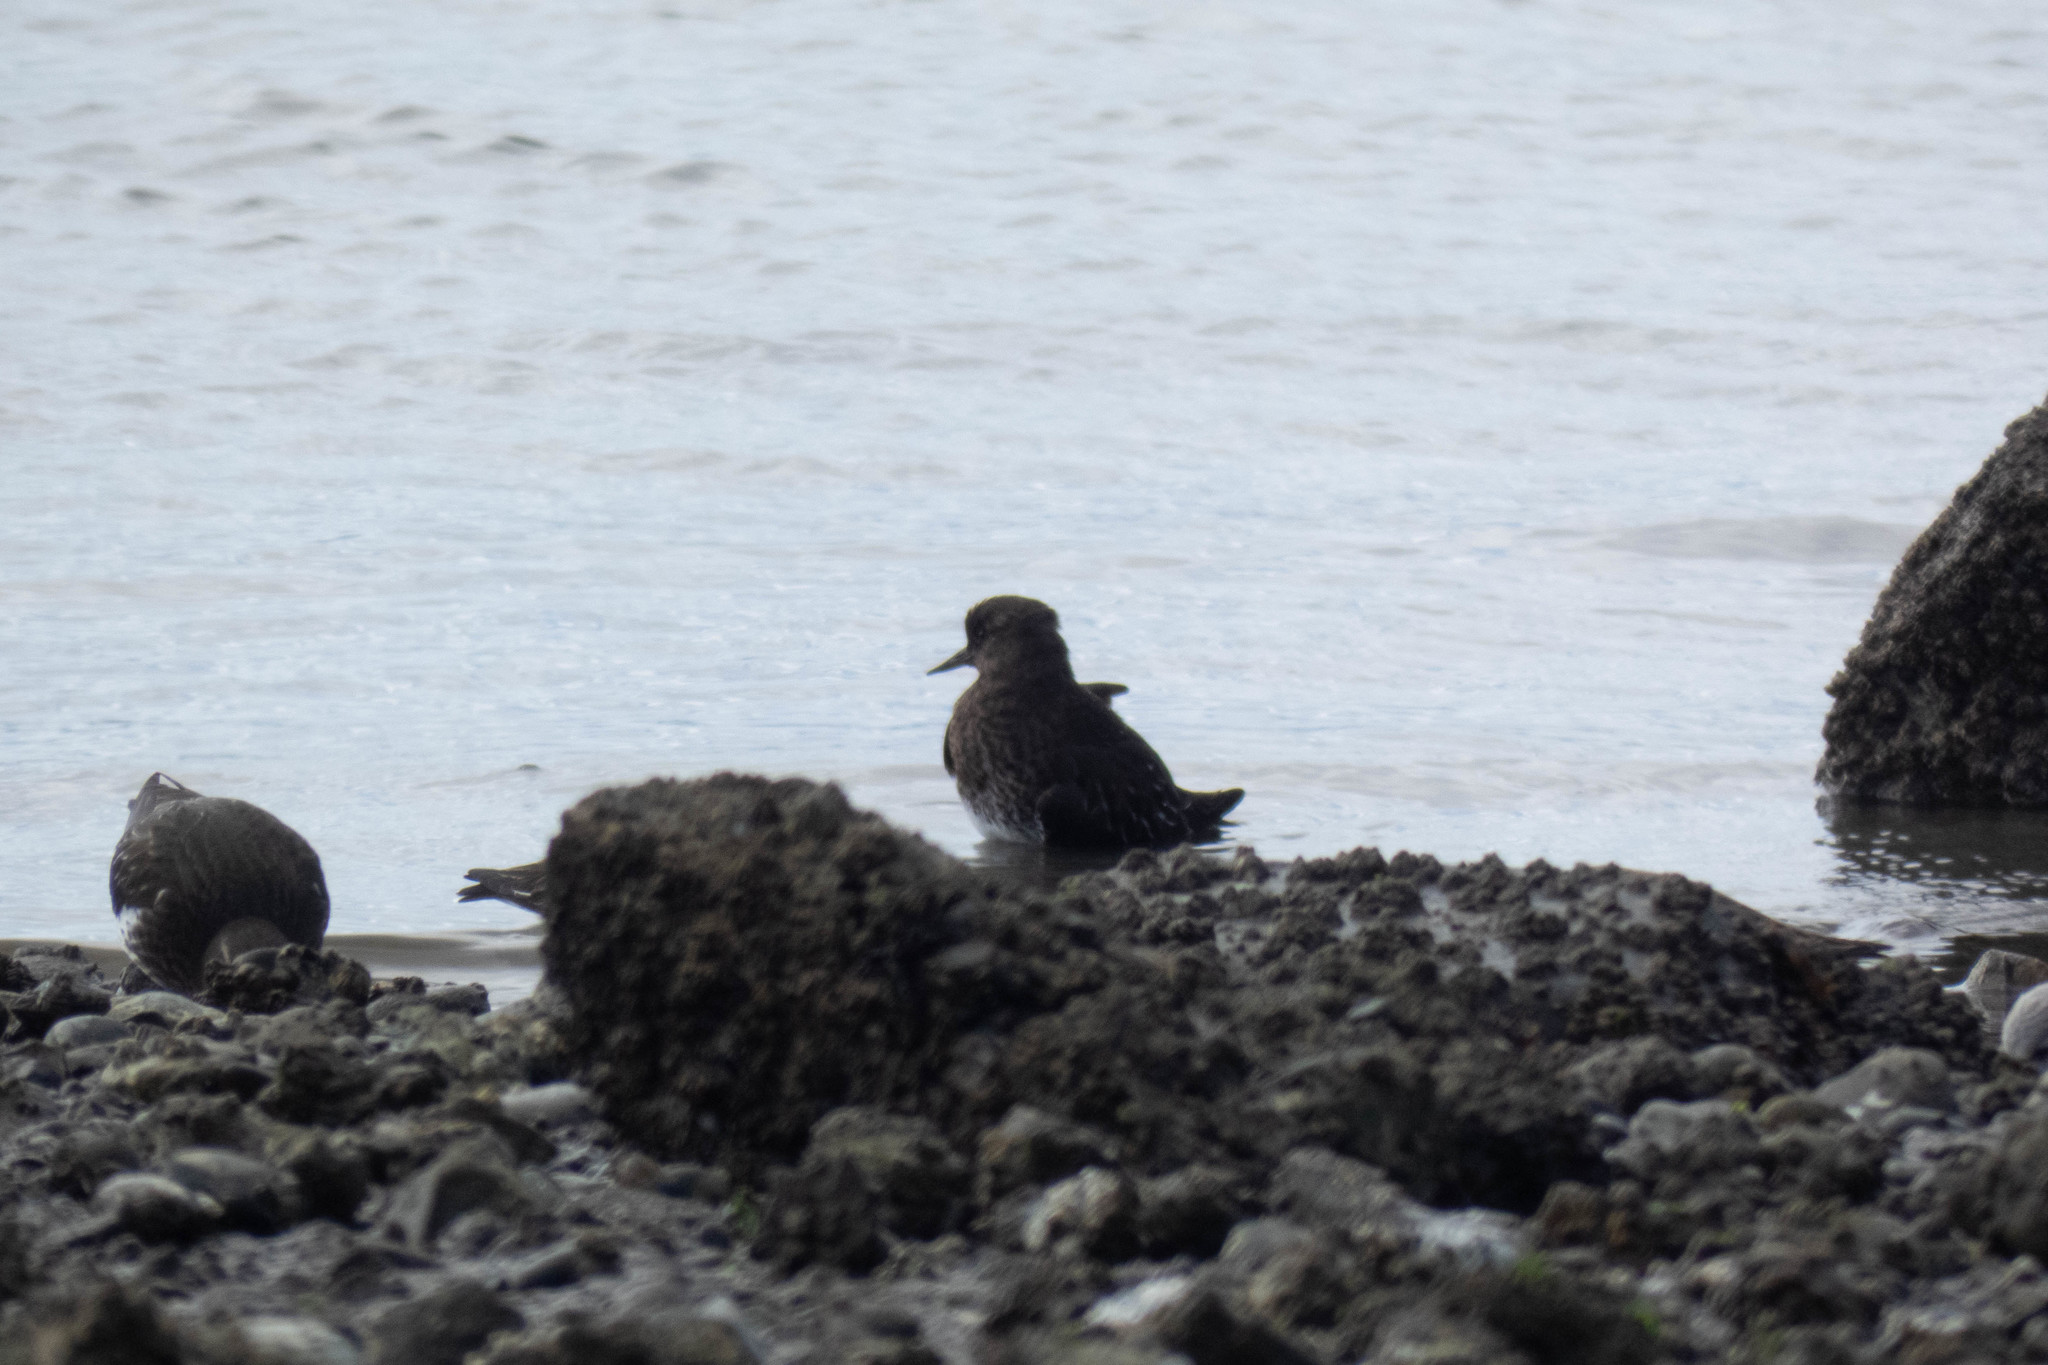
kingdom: Animalia
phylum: Chordata
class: Aves
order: Charadriiformes
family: Scolopacidae
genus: Arenaria
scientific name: Arenaria melanocephala
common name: Black turnstone
